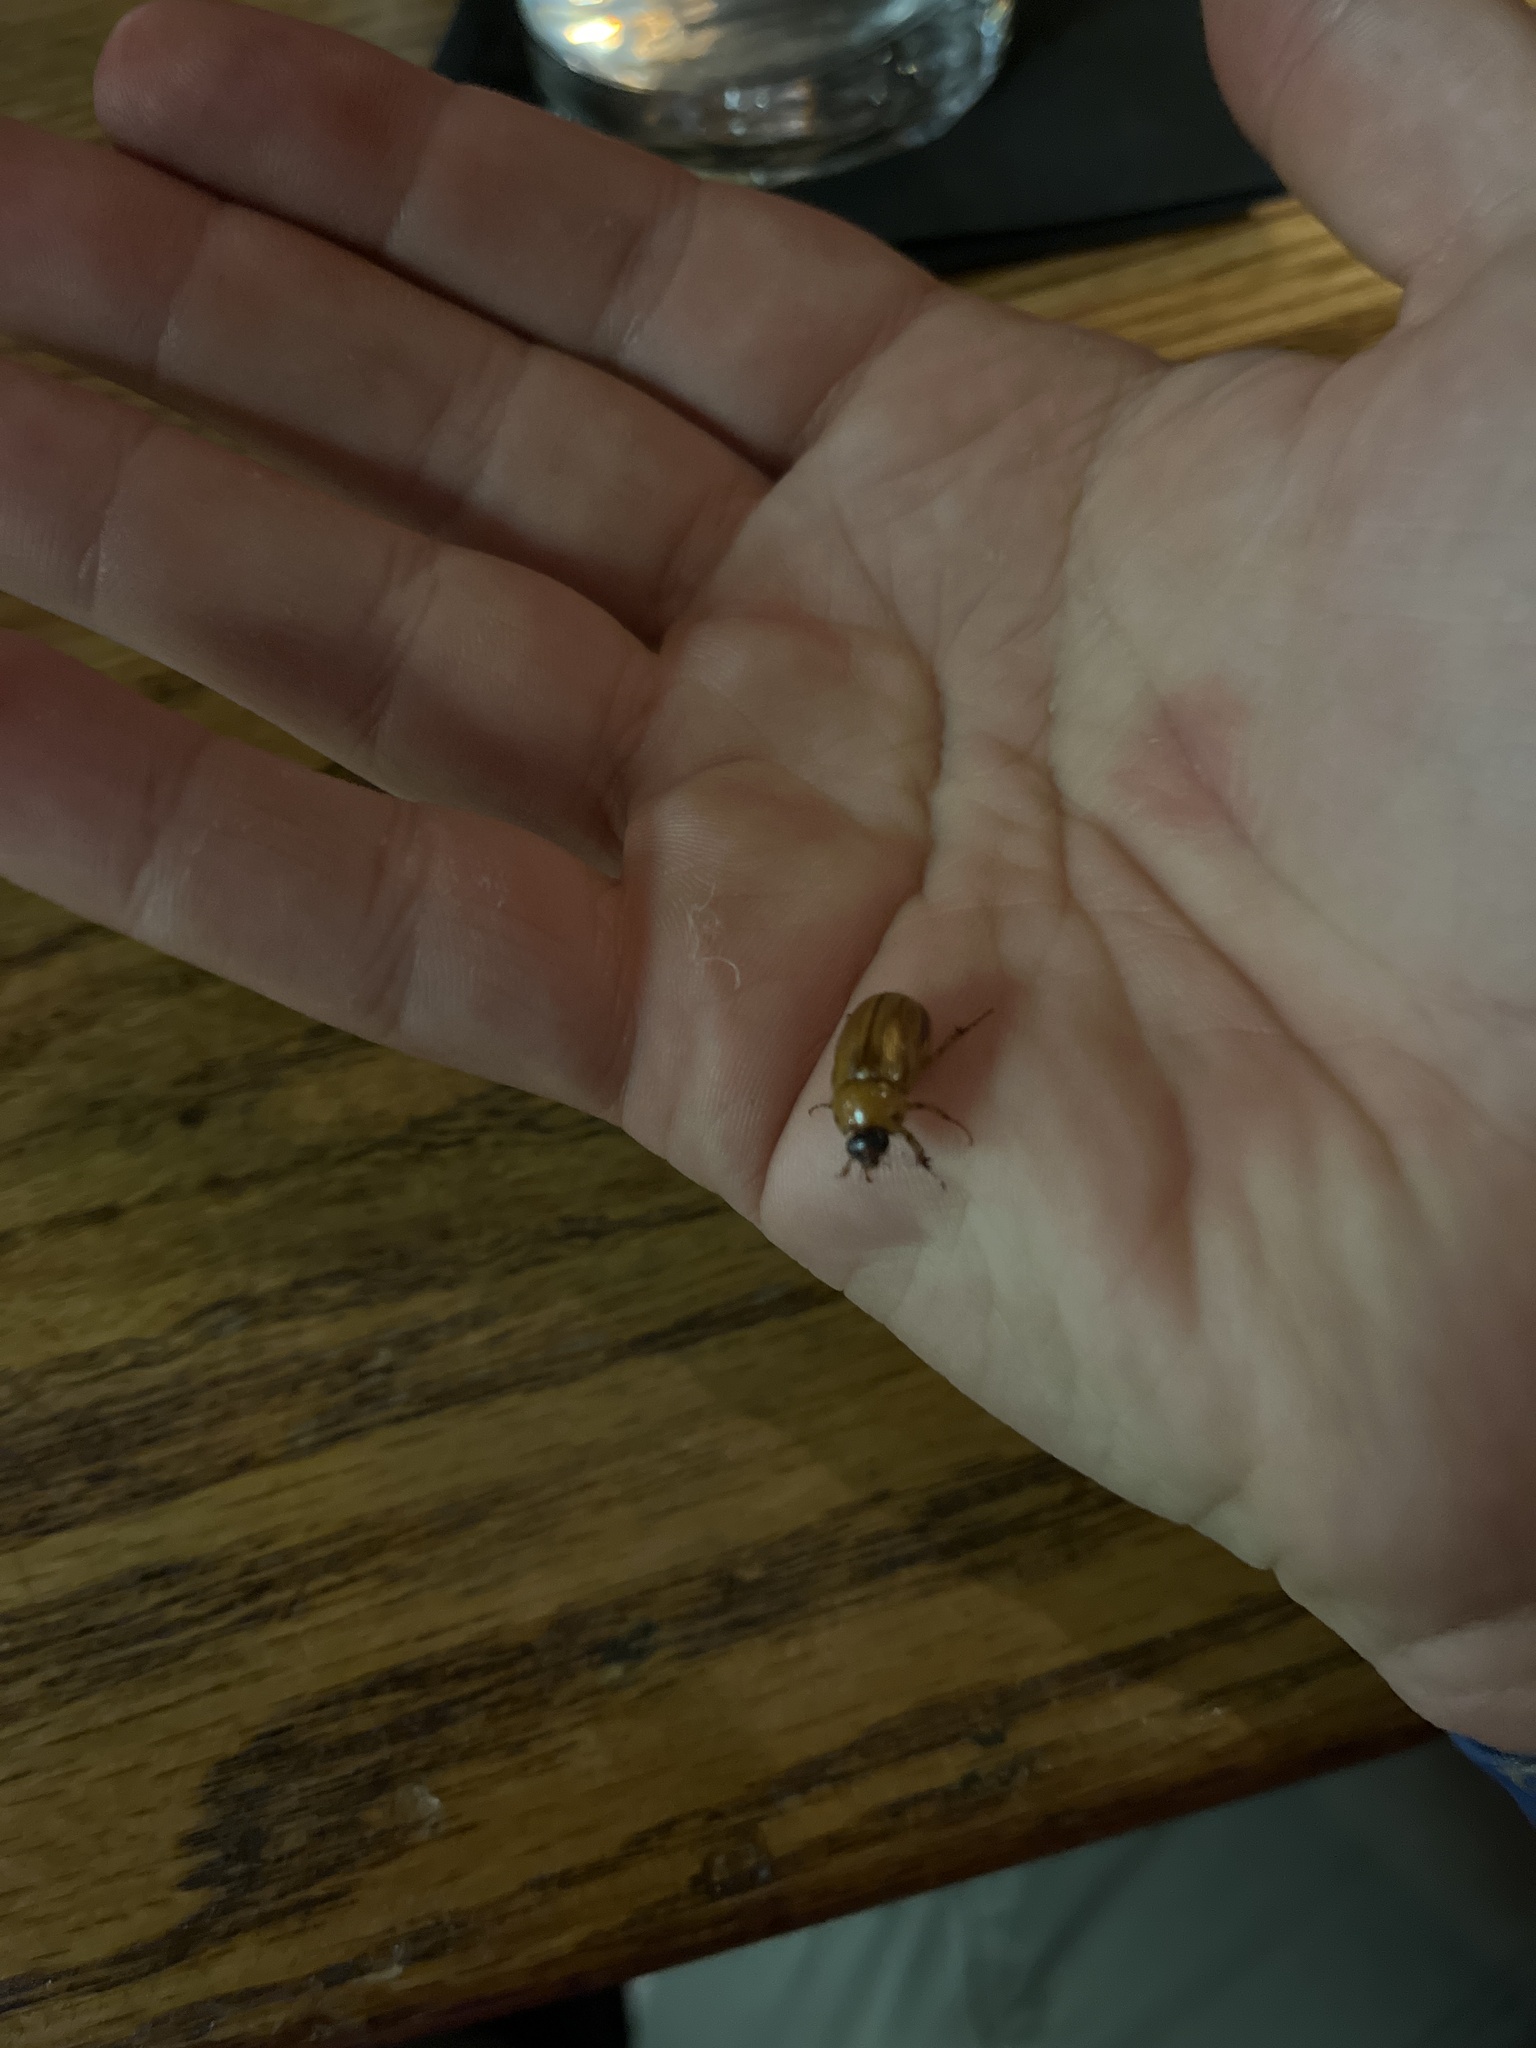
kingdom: Animalia
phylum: Arthropoda
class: Insecta
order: Coleoptera
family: Scarabaeidae
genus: Cyclocephala
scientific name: Cyclocephala lurida
